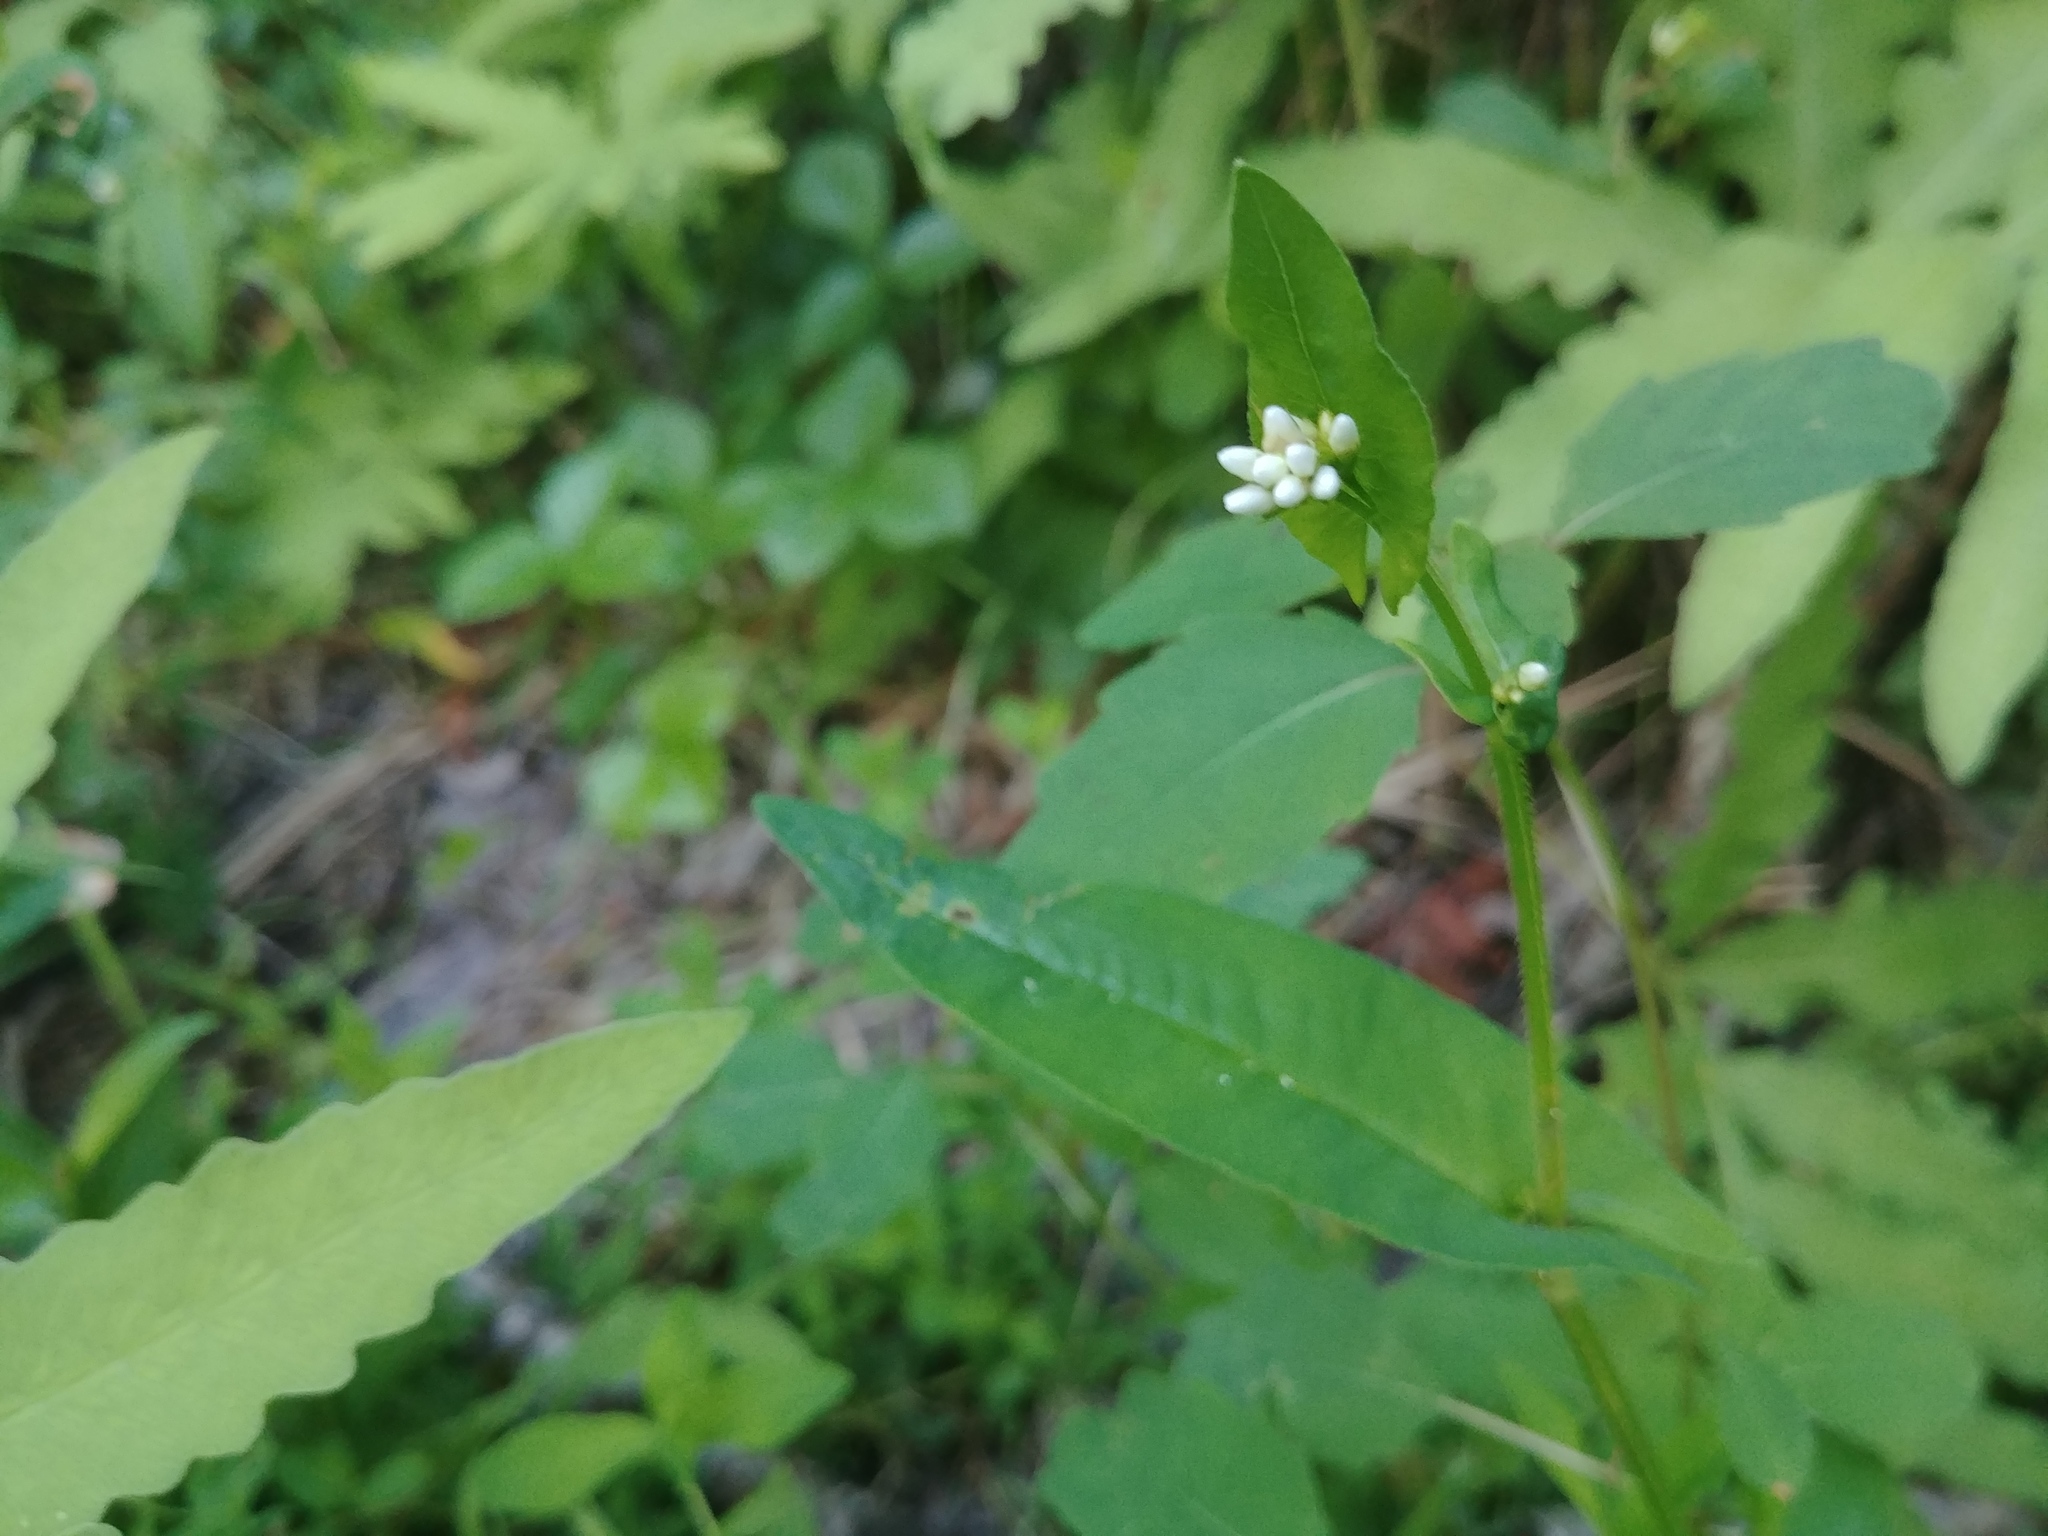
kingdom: Plantae
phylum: Tracheophyta
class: Magnoliopsida
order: Caryophyllales
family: Polygonaceae
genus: Persicaria
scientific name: Persicaria sagittata
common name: American tearthumb
